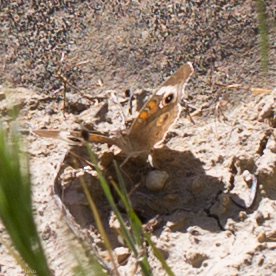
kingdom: Animalia
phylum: Arthropoda
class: Insecta
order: Lepidoptera
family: Nymphalidae
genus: Junonia
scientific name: Junonia grisea
